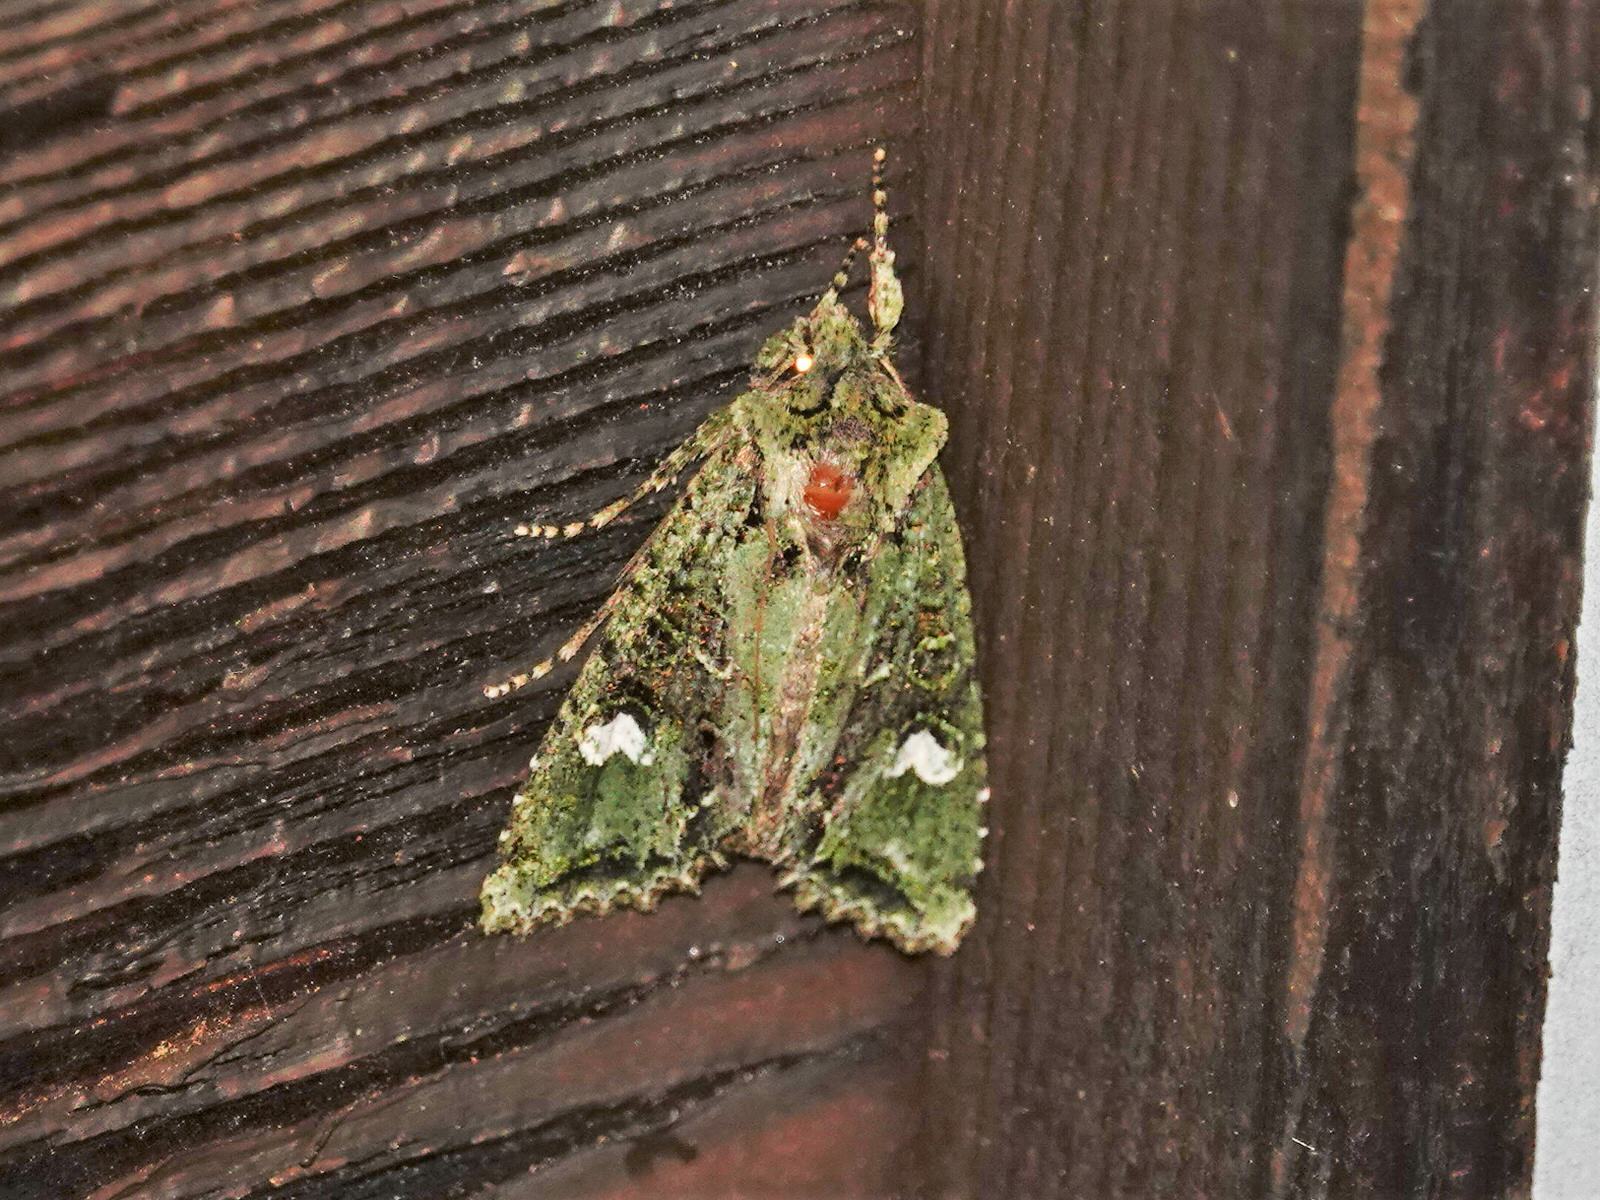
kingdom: Animalia
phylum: Arthropoda
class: Insecta
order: Lepidoptera
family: Noctuidae
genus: Ichneutica
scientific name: Ichneutica
